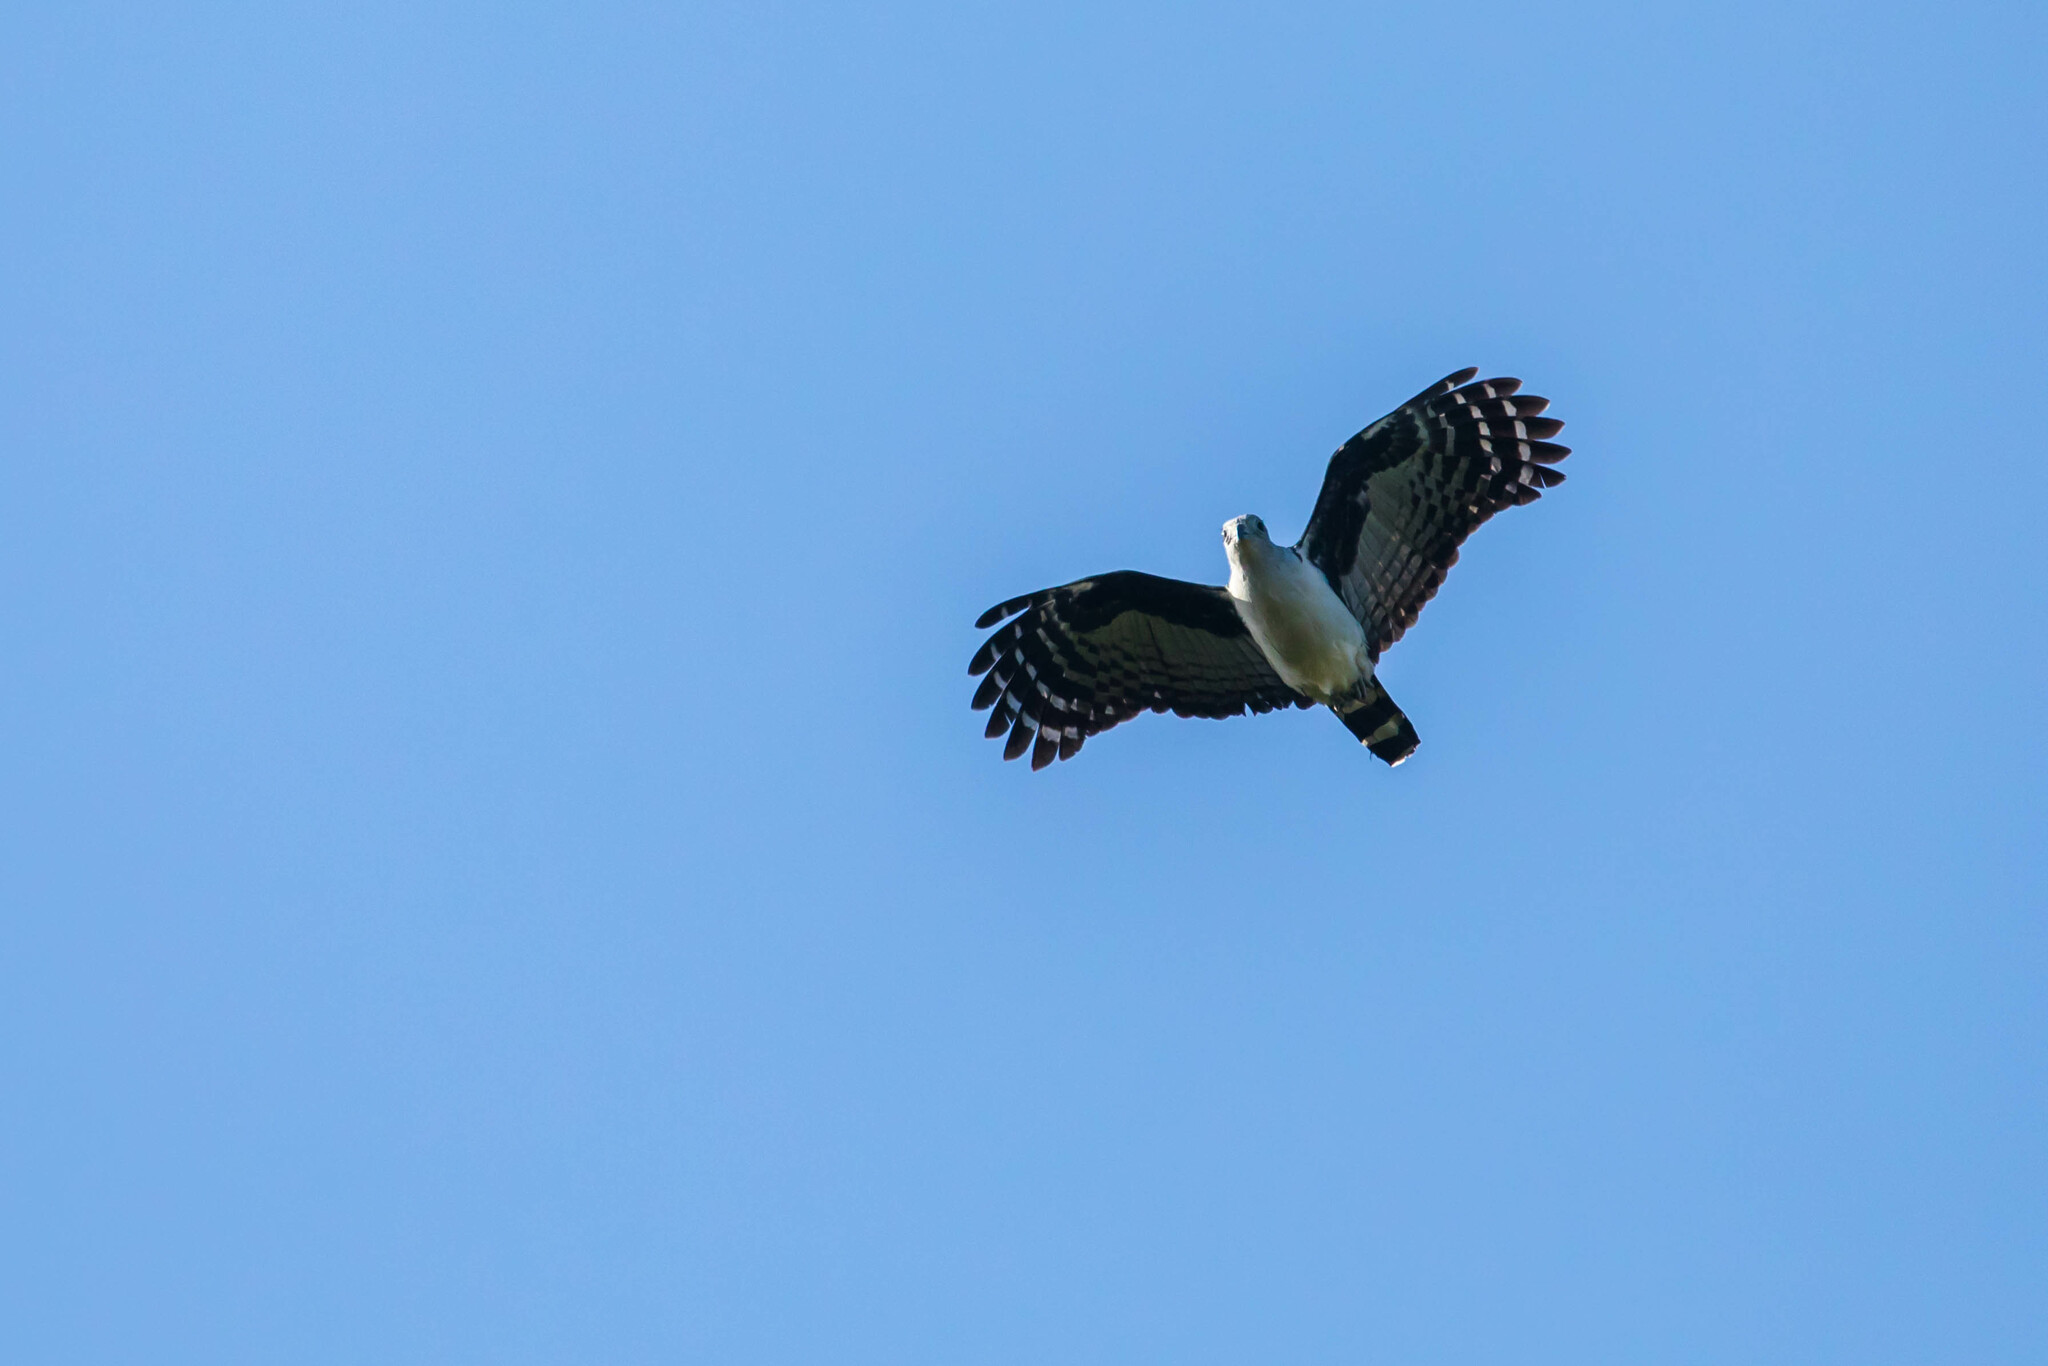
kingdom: Animalia
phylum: Chordata
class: Aves
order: Accipitriformes
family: Accipitridae
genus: Leptodon
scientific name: Leptodon cayanensis
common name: Gray-headed kite
